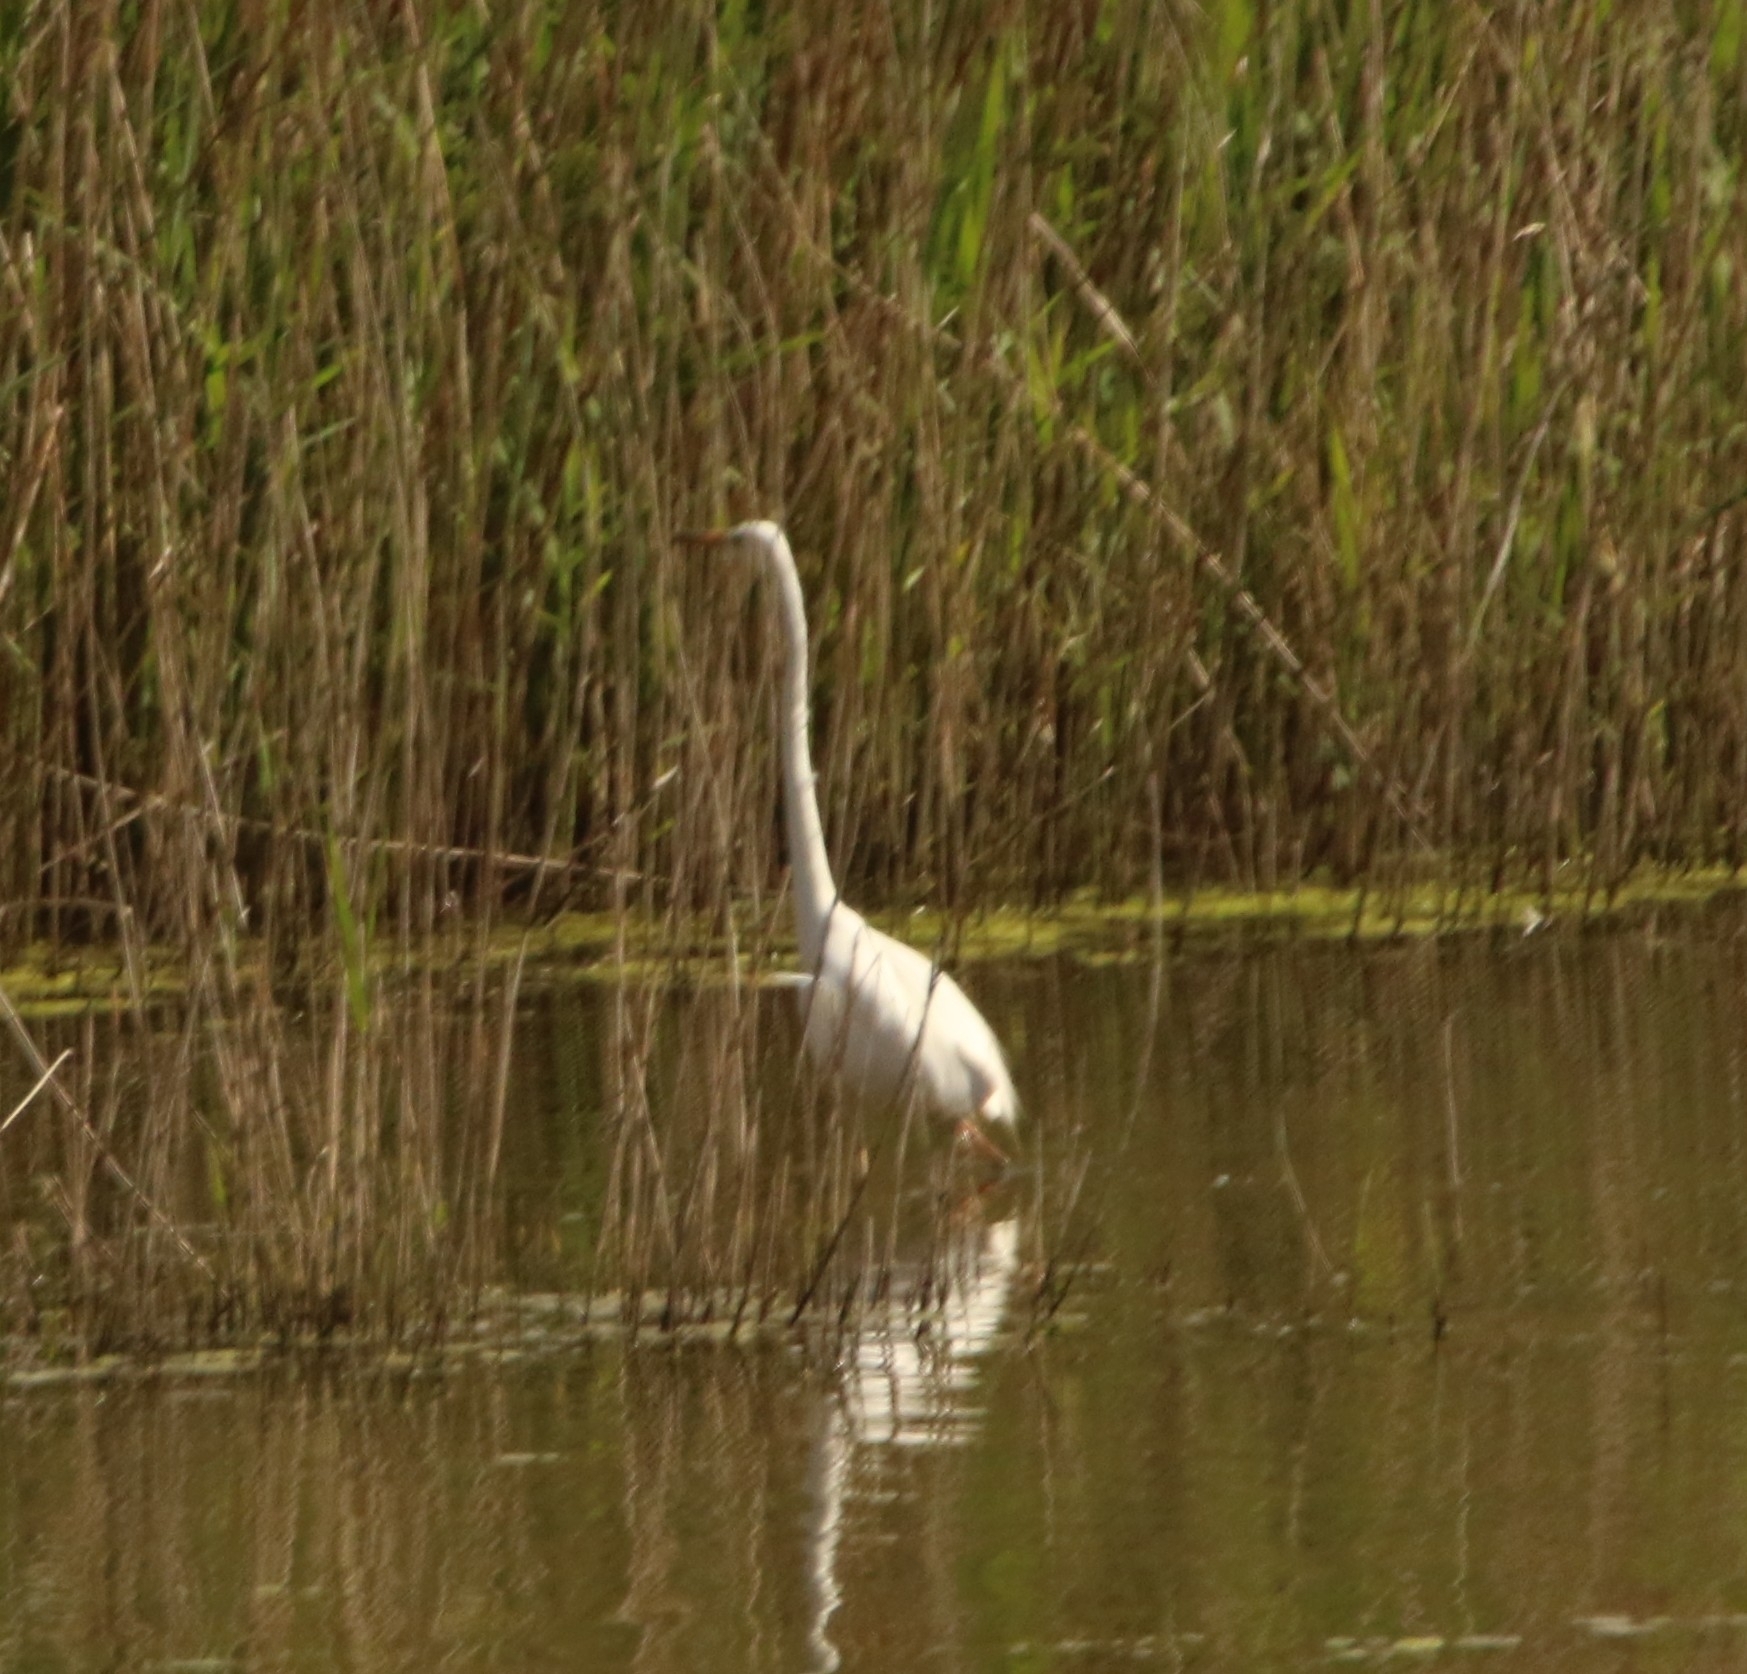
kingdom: Animalia
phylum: Chordata
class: Aves
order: Pelecaniformes
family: Ardeidae
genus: Ardea
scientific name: Ardea alba
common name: Great egret
